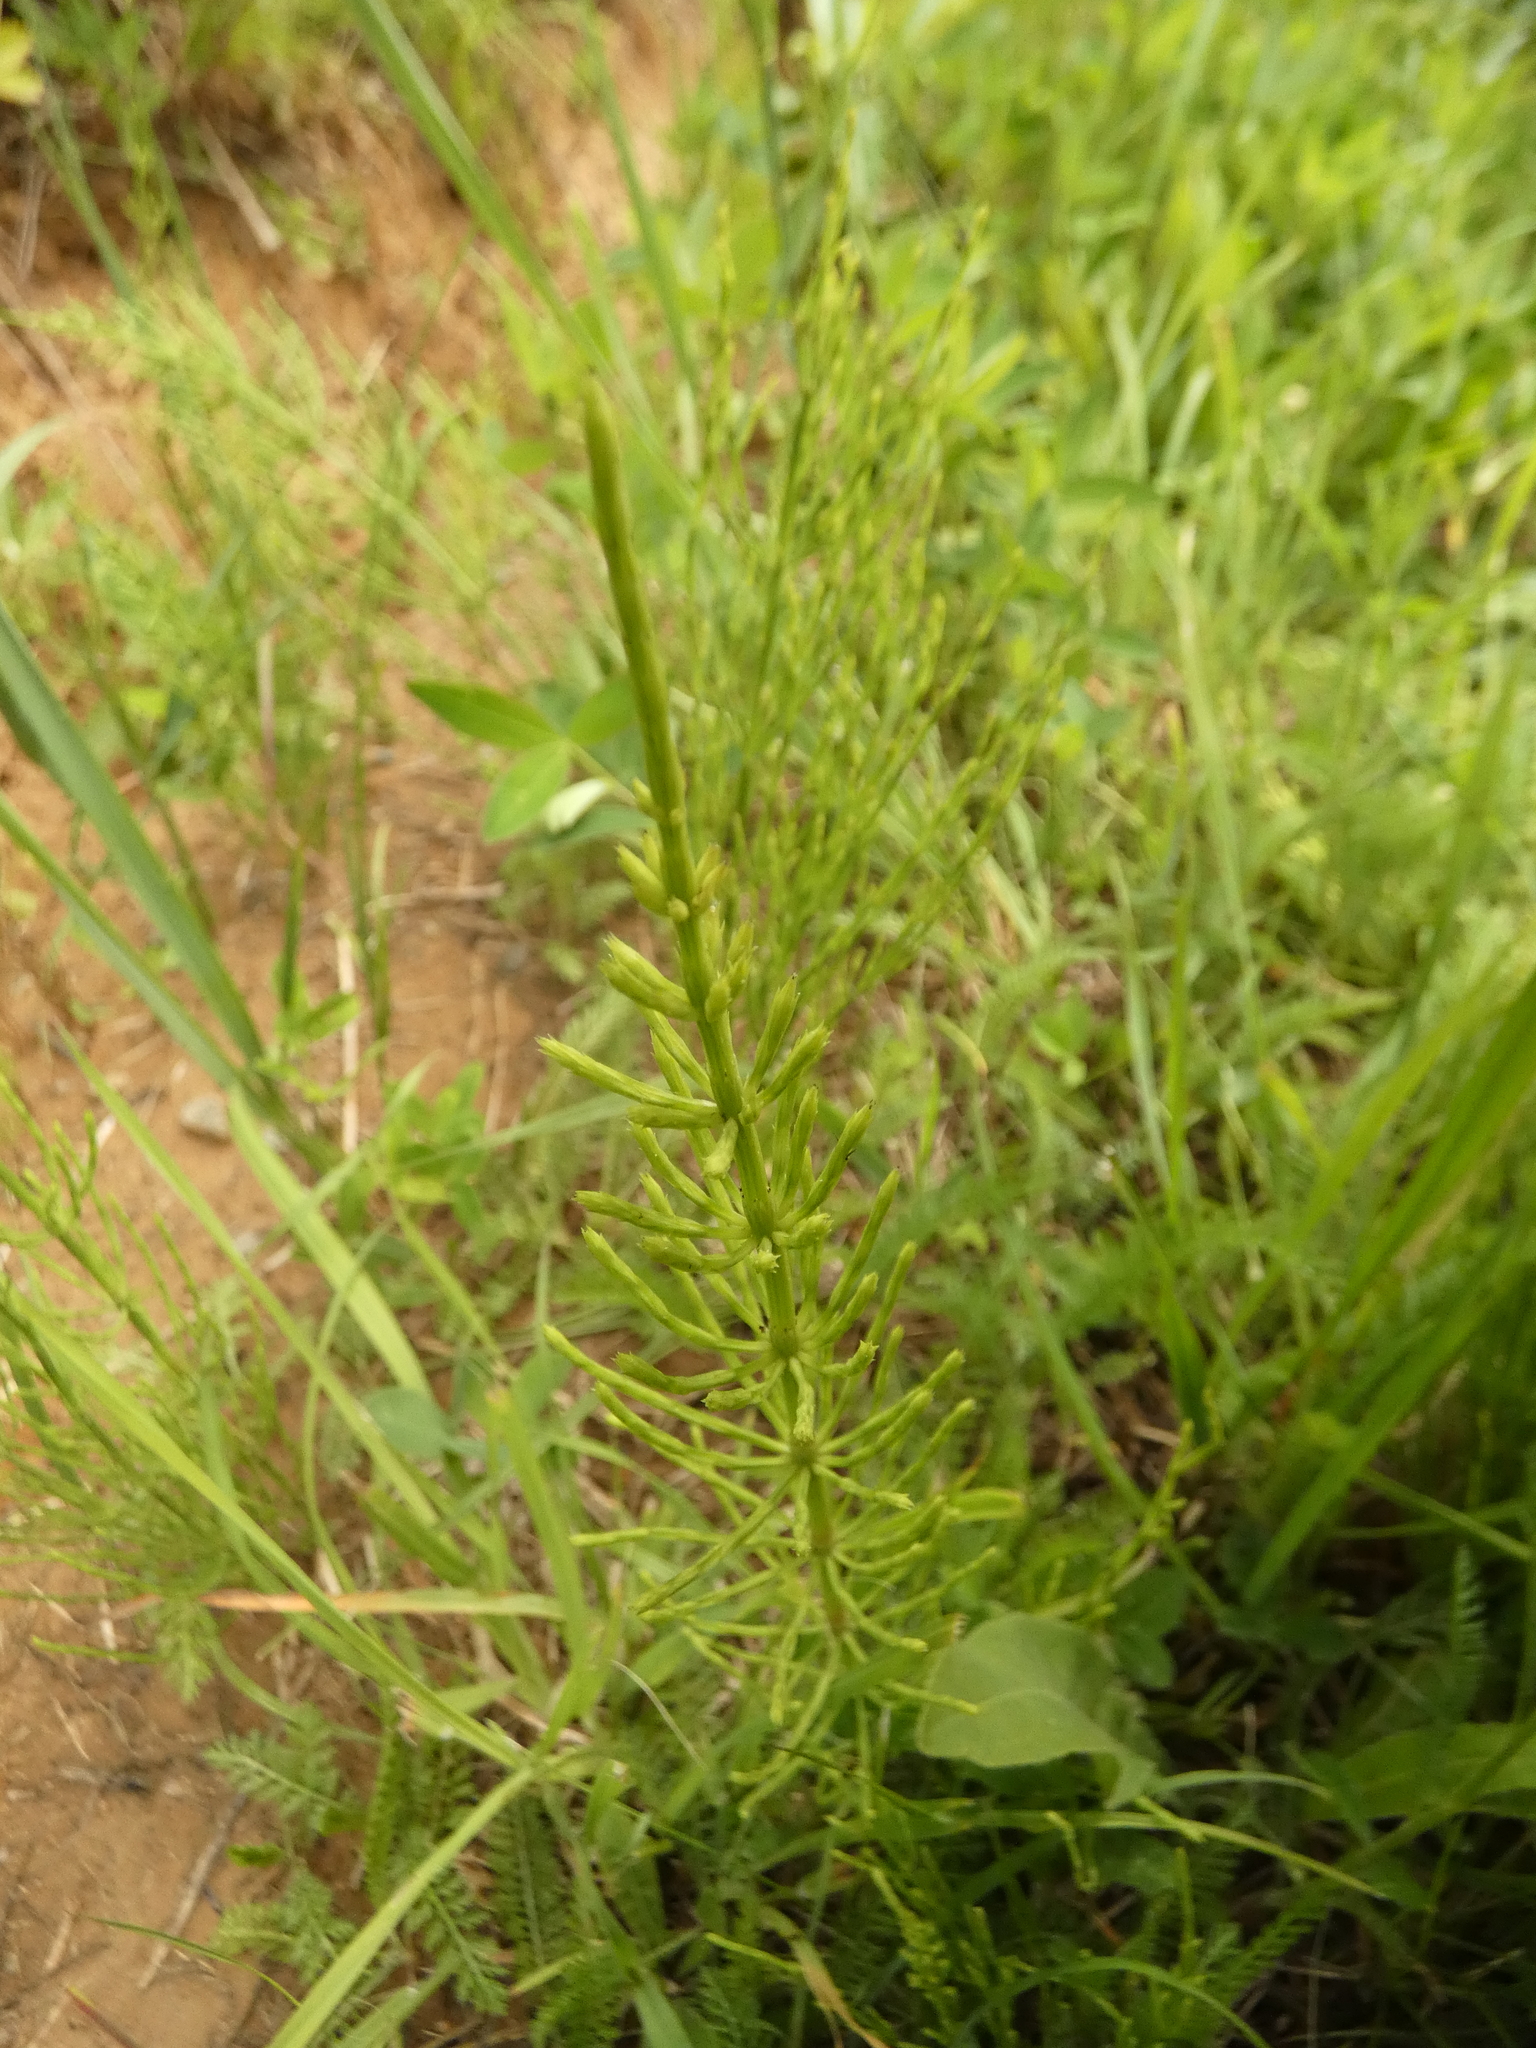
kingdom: Plantae
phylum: Tracheophyta
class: Polypodiopsida
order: Equisetales
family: Equisetaceae
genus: Equisetum
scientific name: Equisetum arvense
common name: Field horsetail
